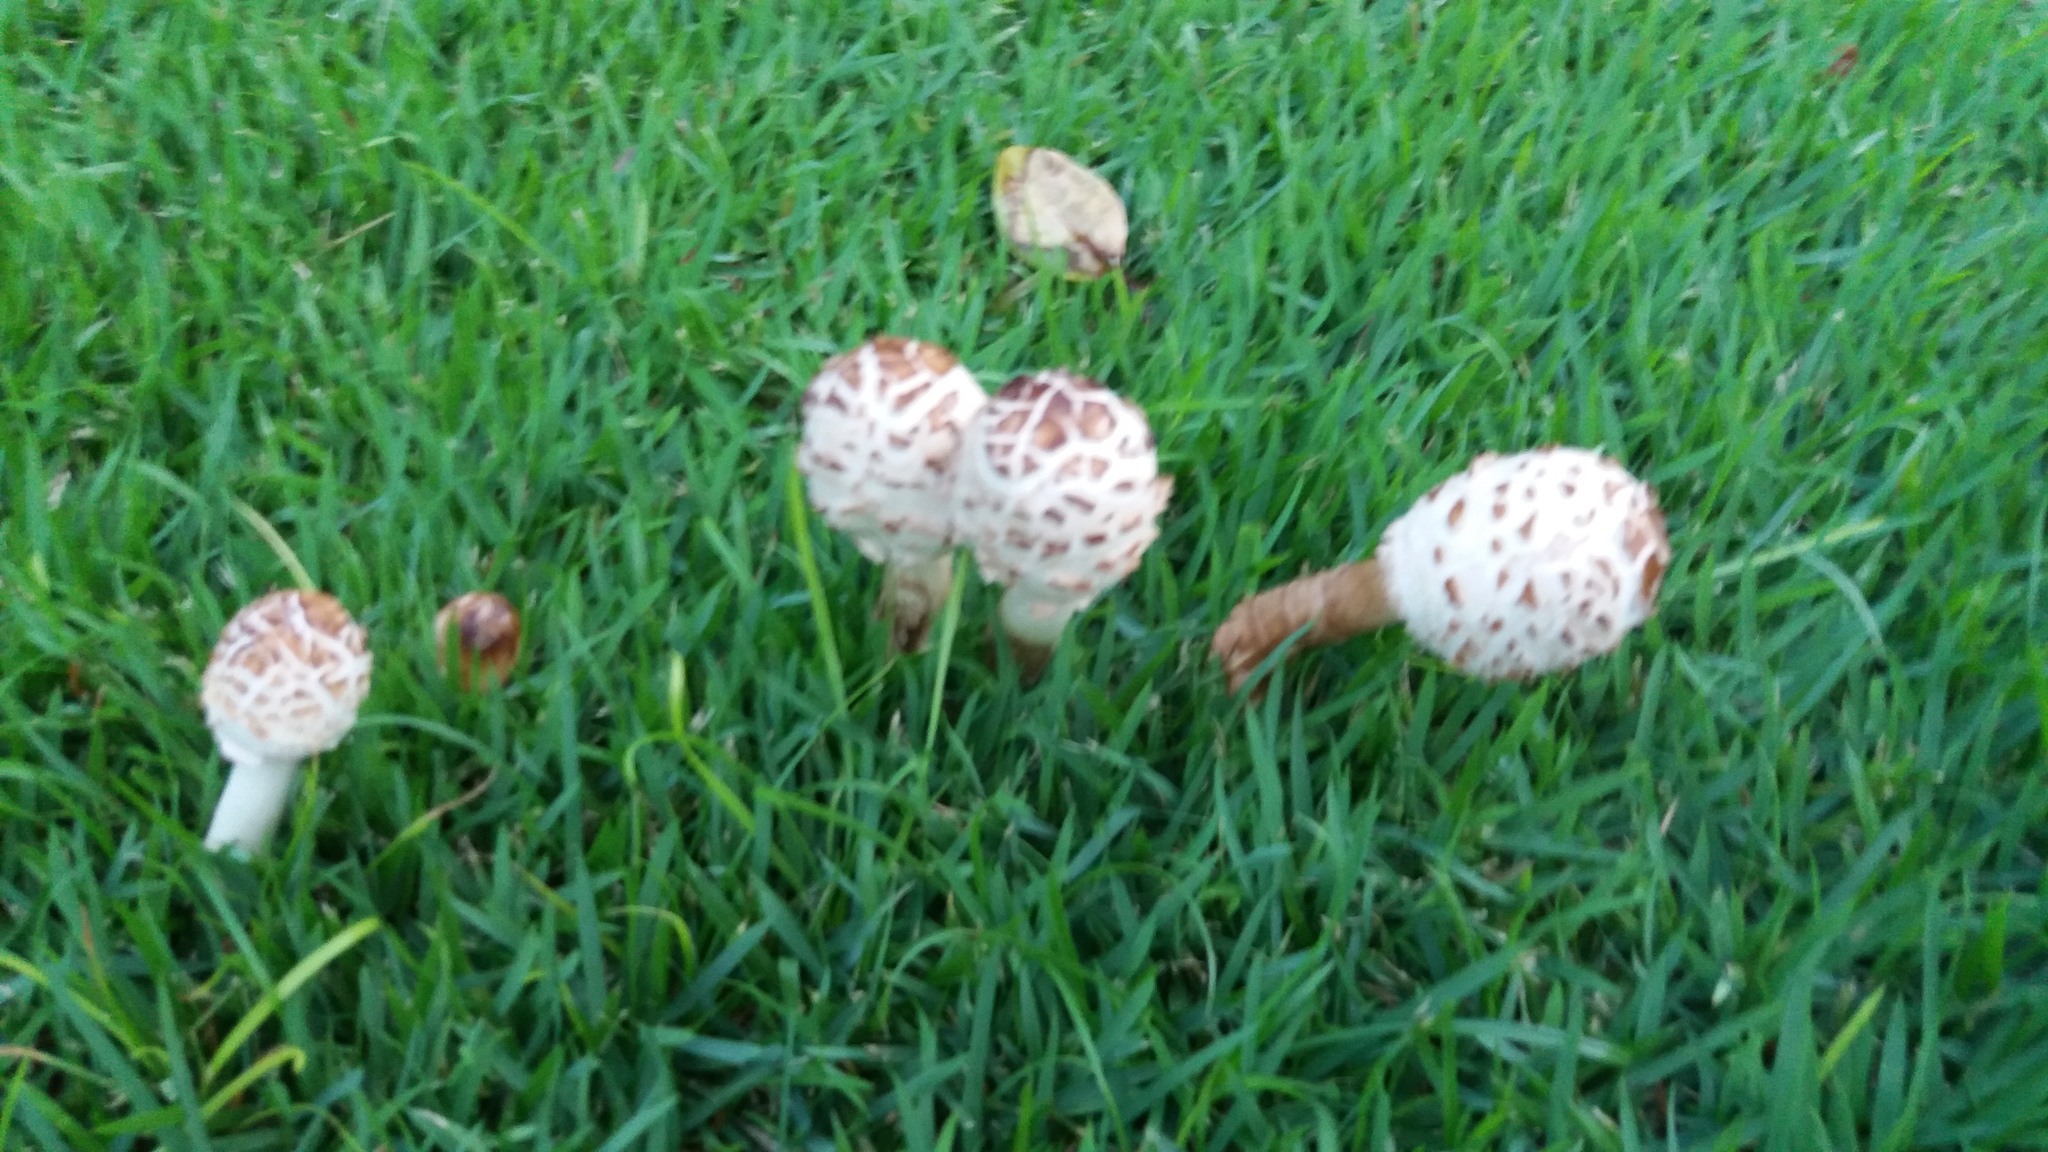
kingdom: Fungi
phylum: Basidiomycota
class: Agaricomycetes
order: Agaricales
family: Agaricaceae
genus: Chlorophyllum
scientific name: Chlorophyllum molybdites
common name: False parasol
